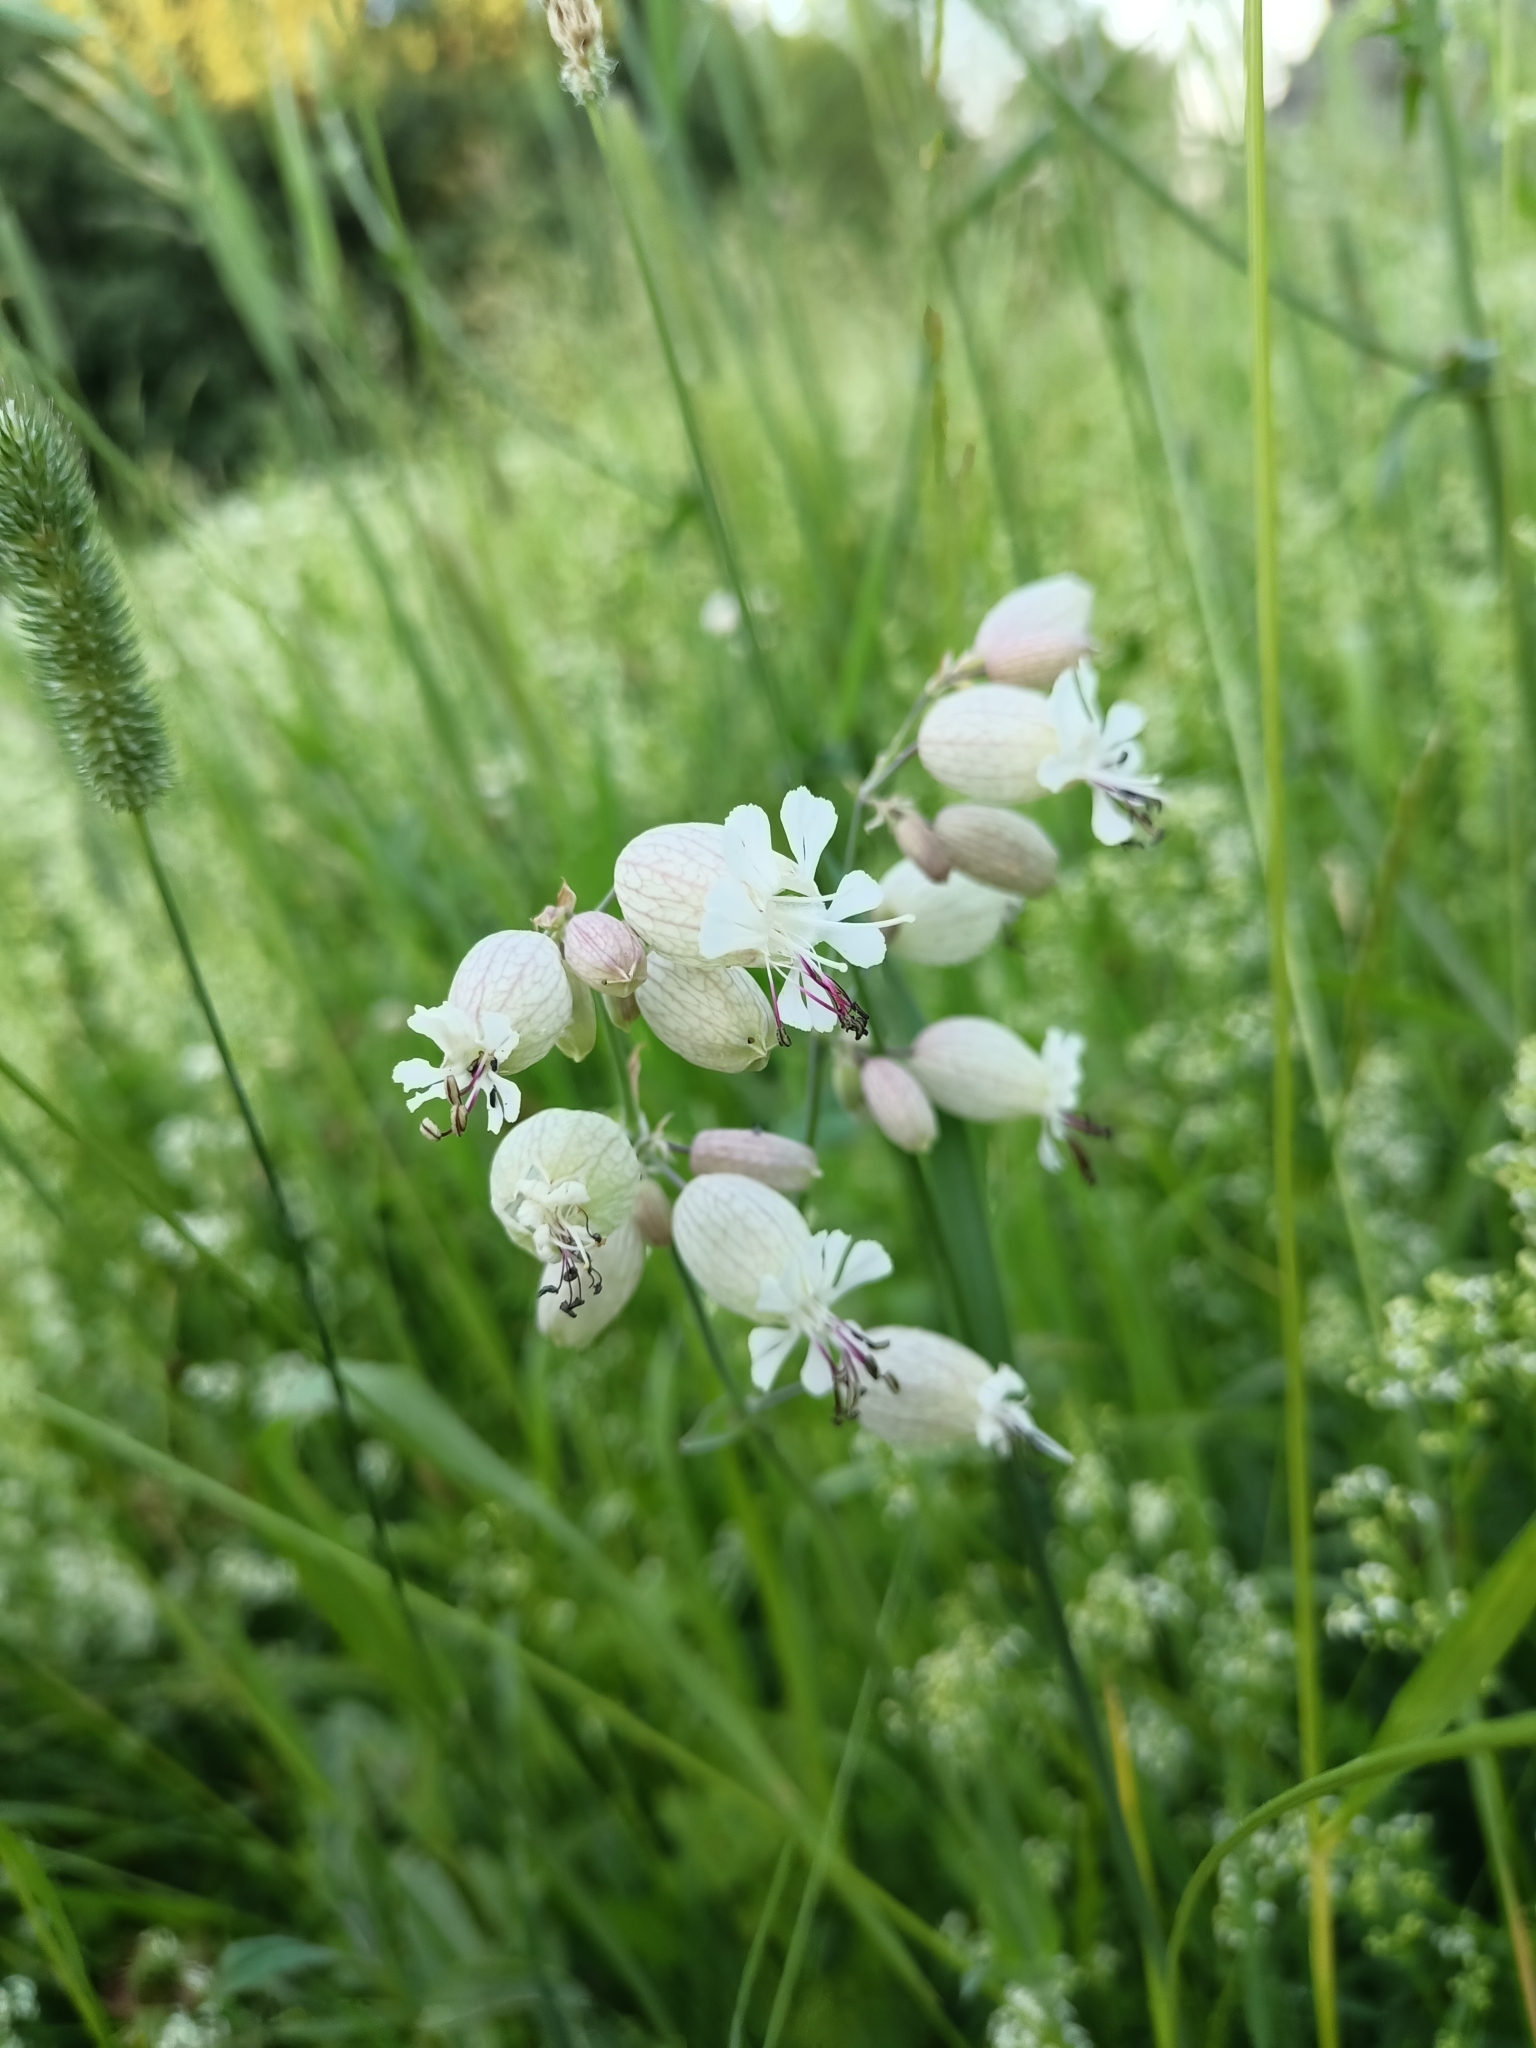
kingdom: Plantae
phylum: Tracheophyta
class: Magnoliopsida
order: Caryophyllales
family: Caryophyllaceae
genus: Silene
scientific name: Silene vulgaris
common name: Bladder campion
